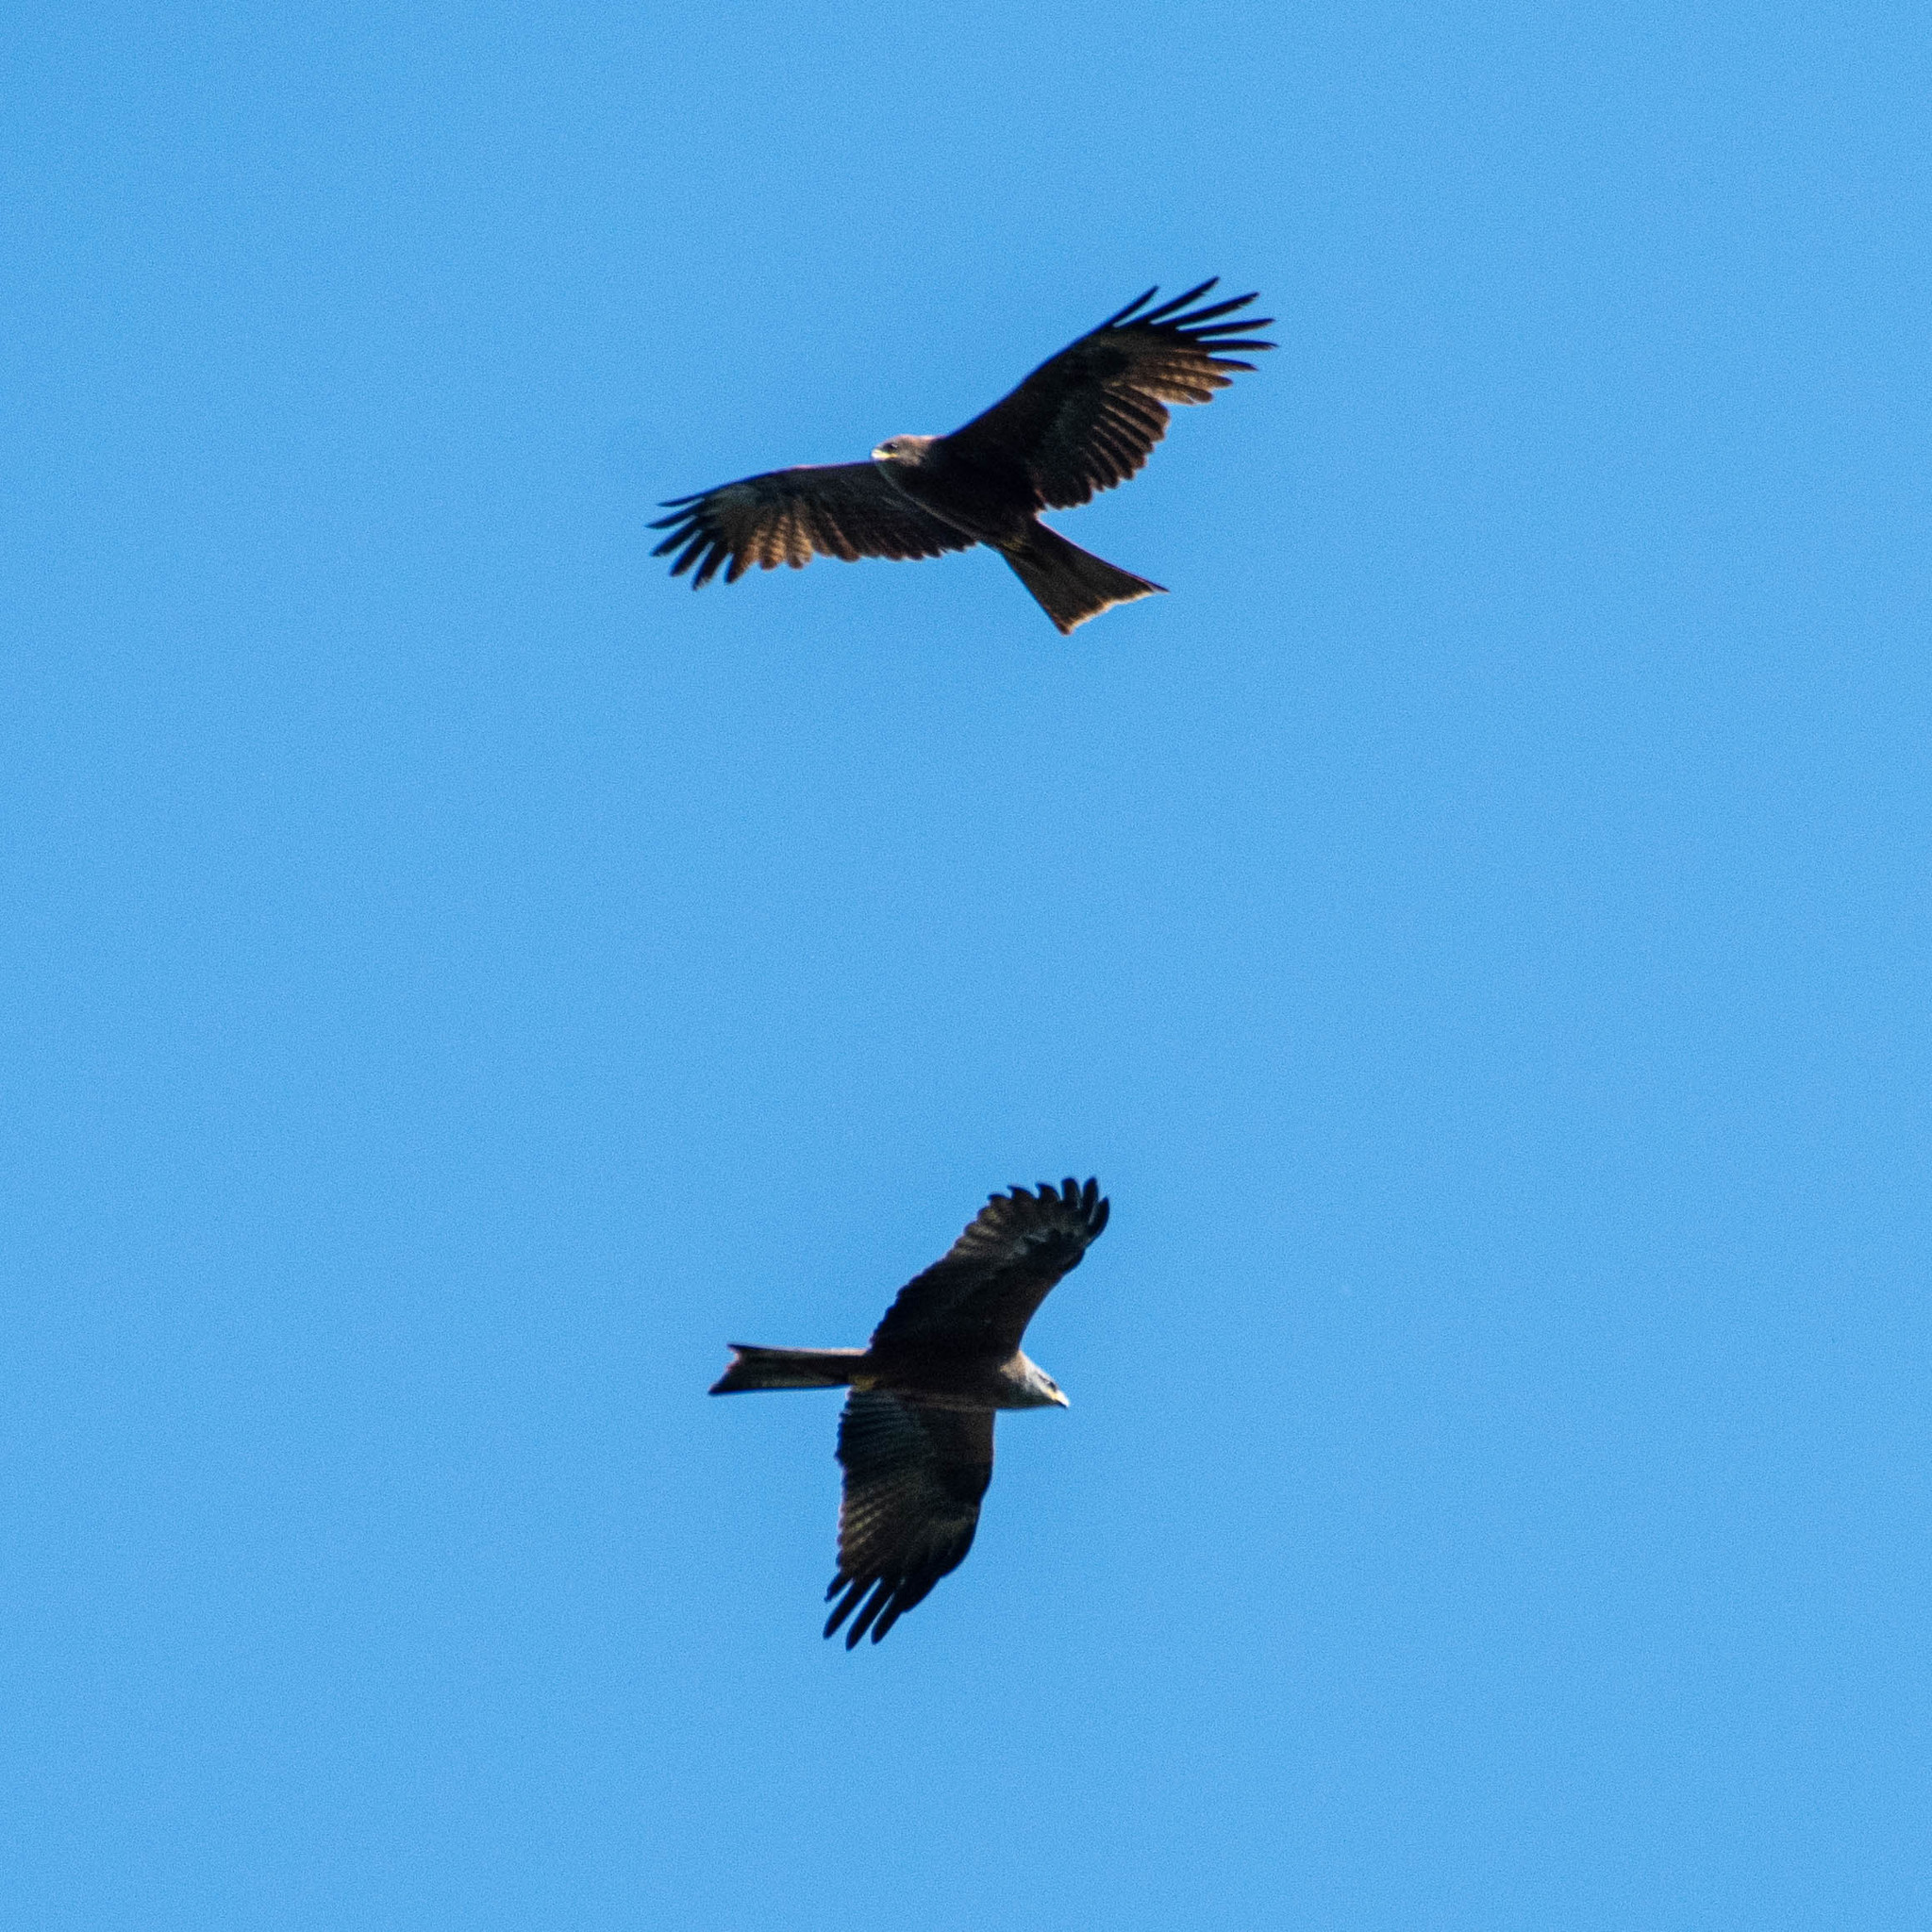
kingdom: Animalia
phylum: Chordata
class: Aves
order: Accipitriformes
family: Accipitridae
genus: Milvus
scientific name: Milvus migrans
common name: Black kite
